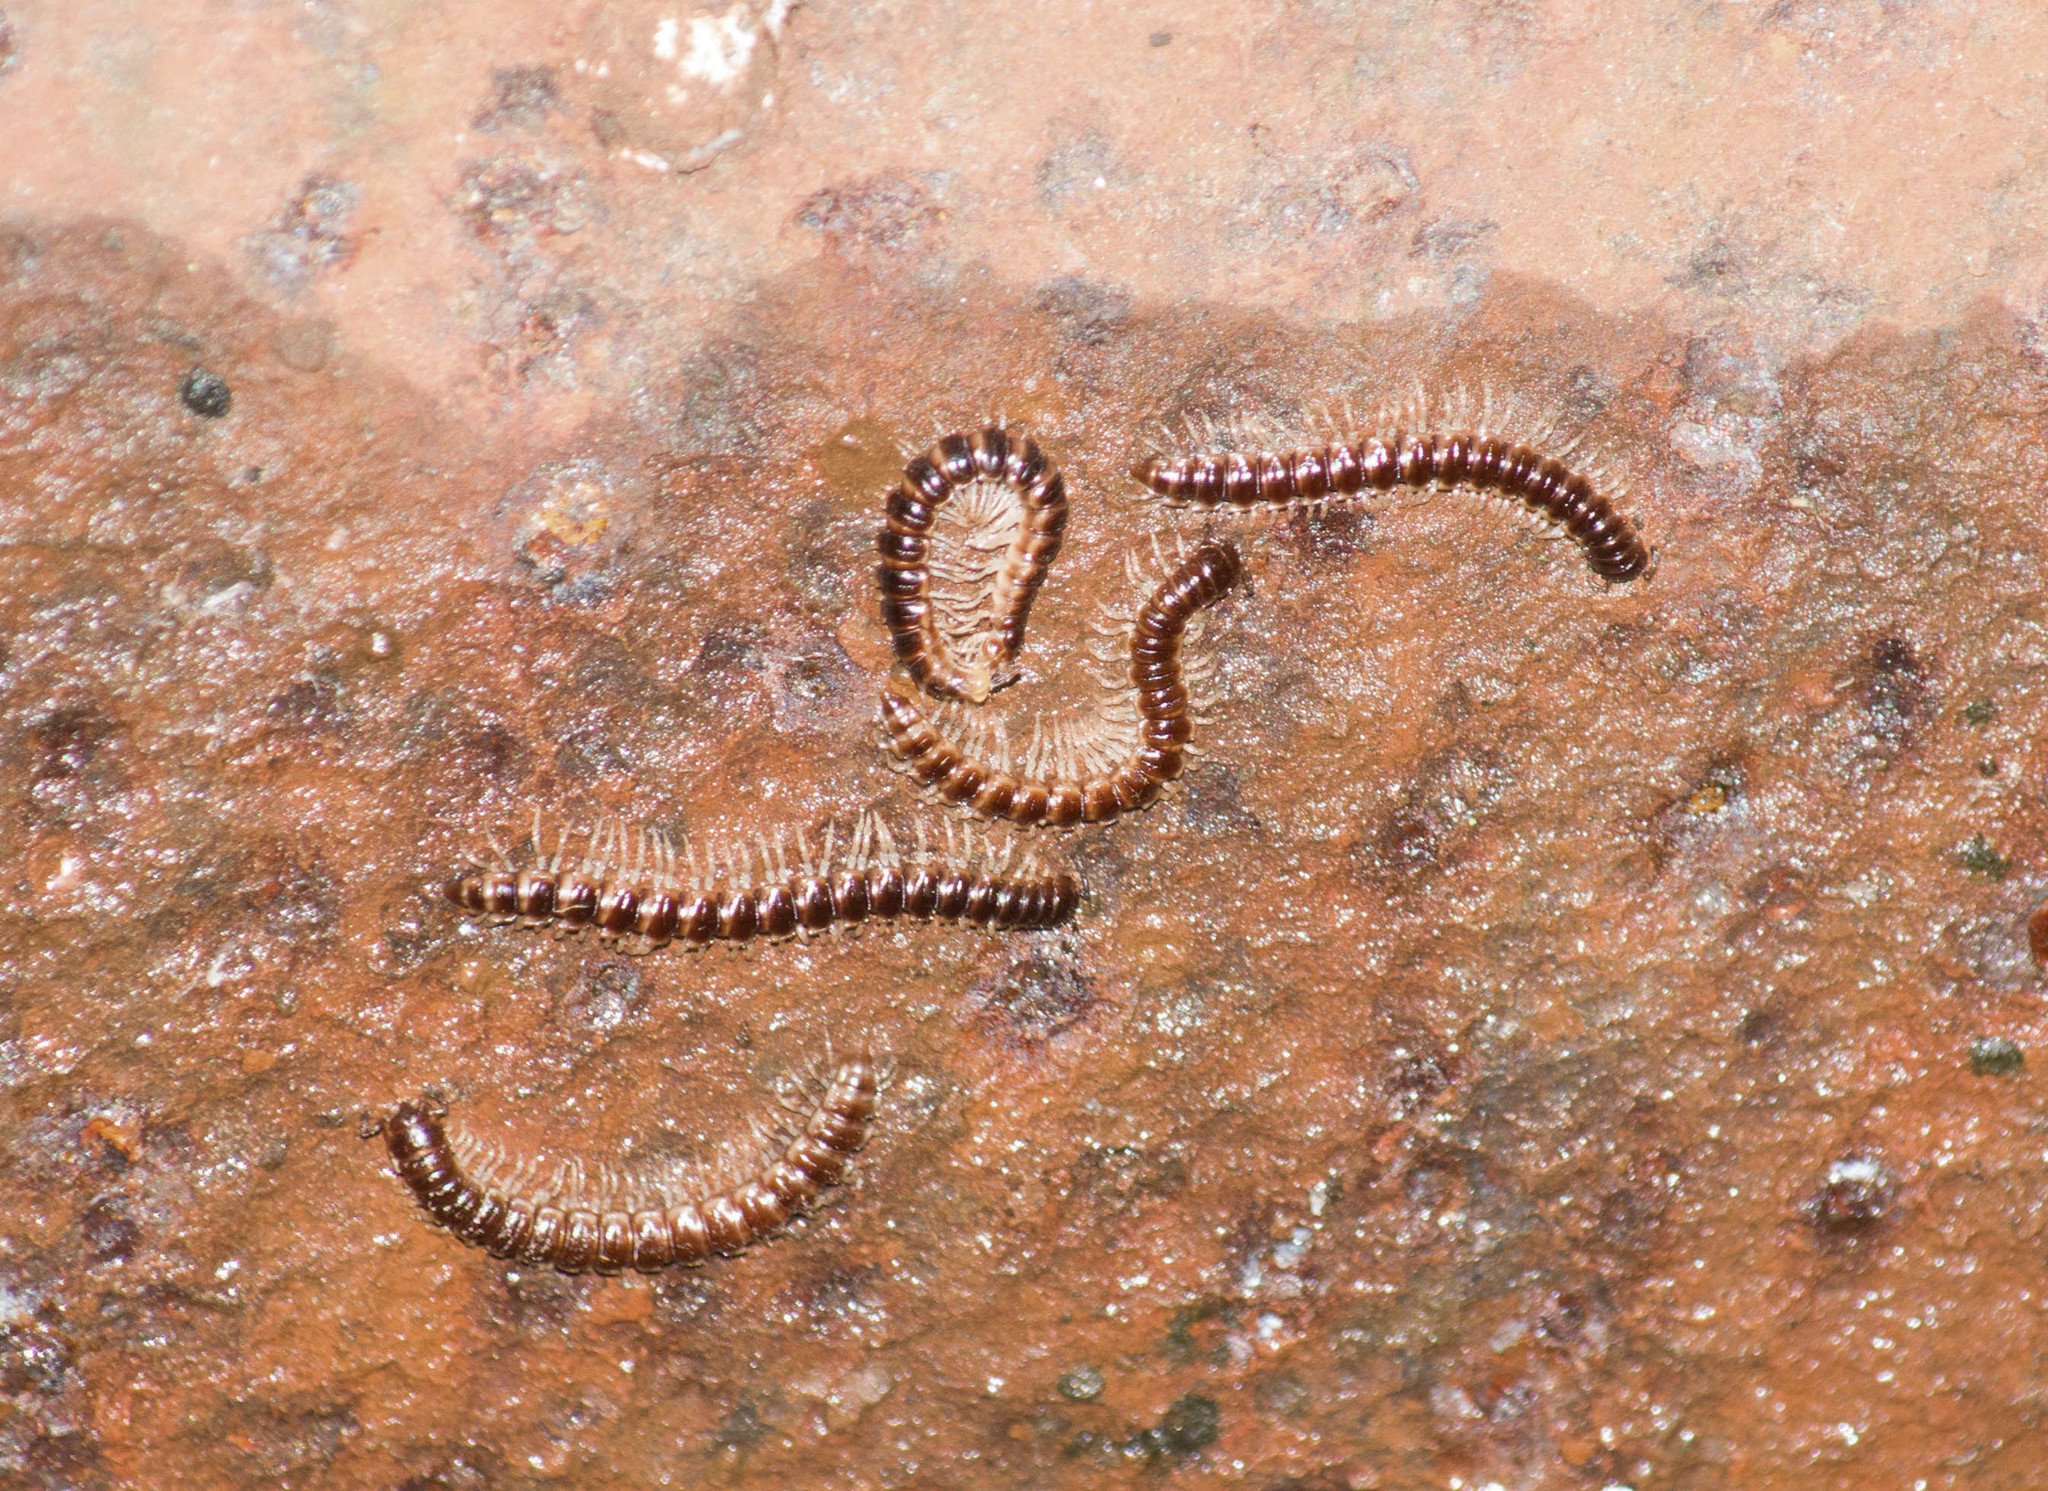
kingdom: Animalia
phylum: Arthropoda
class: Diplopoda
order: Polydesmida
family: Paradoxosomatidae
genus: Oxidus
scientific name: Oxidus gracilis
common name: Greenhouse millipede
